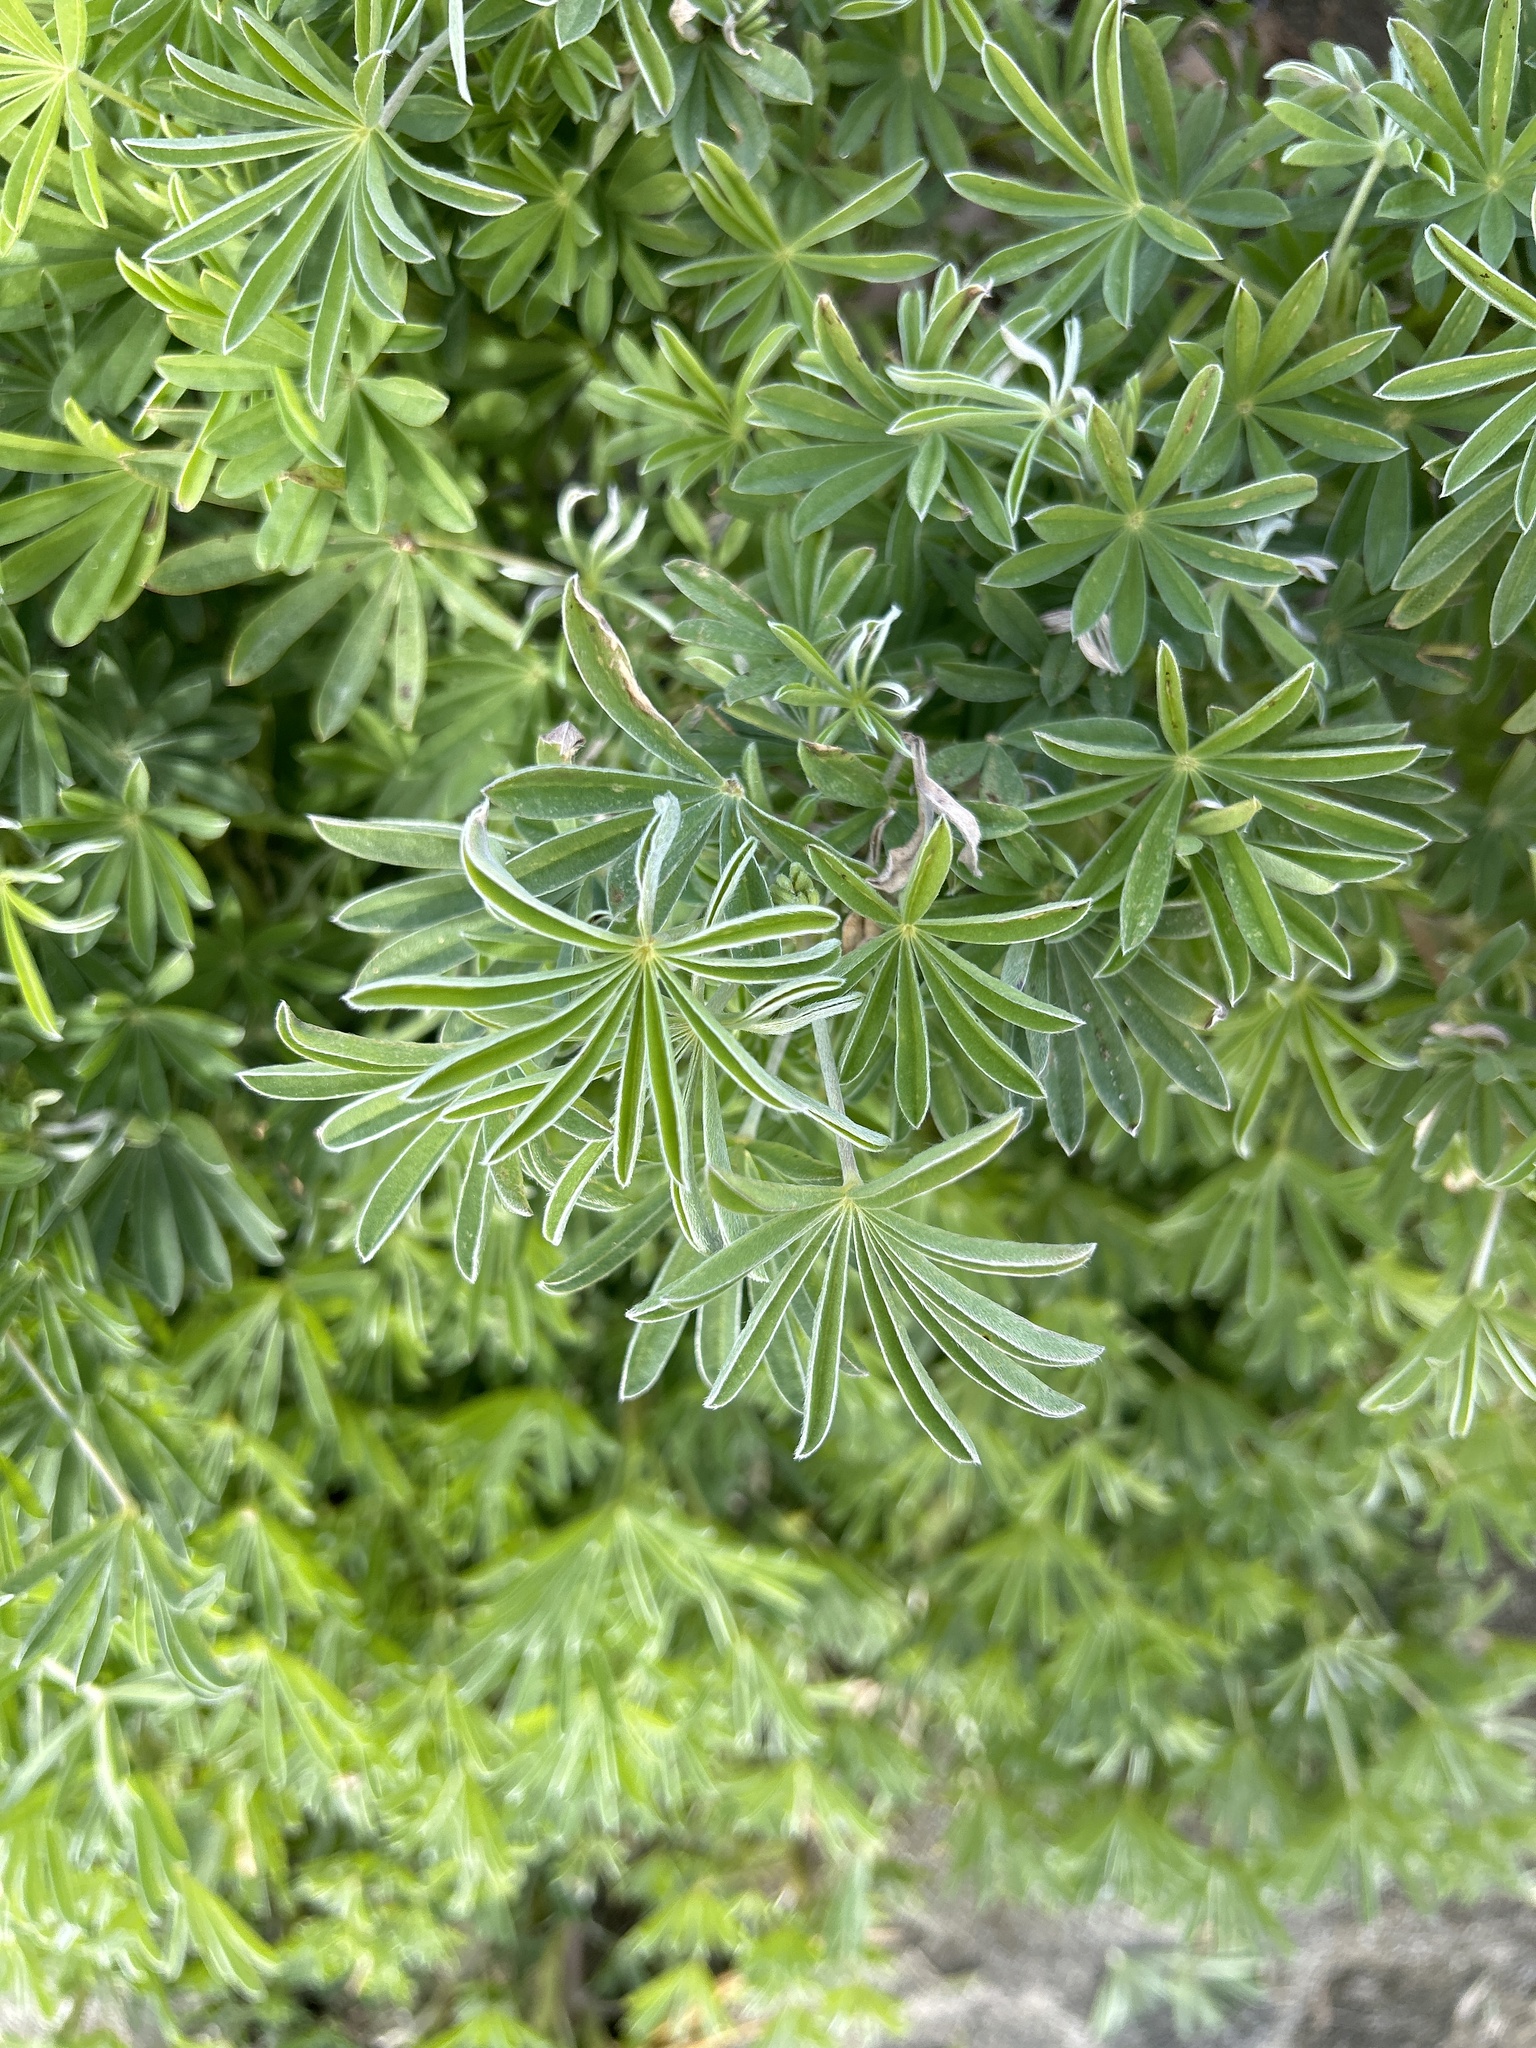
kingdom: Plantae
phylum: Tracheophyta
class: Magnoliopsida
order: Fabales
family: Fabaceae
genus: Lupinus
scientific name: Lupinus arboreus
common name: Yellow bush lupine
